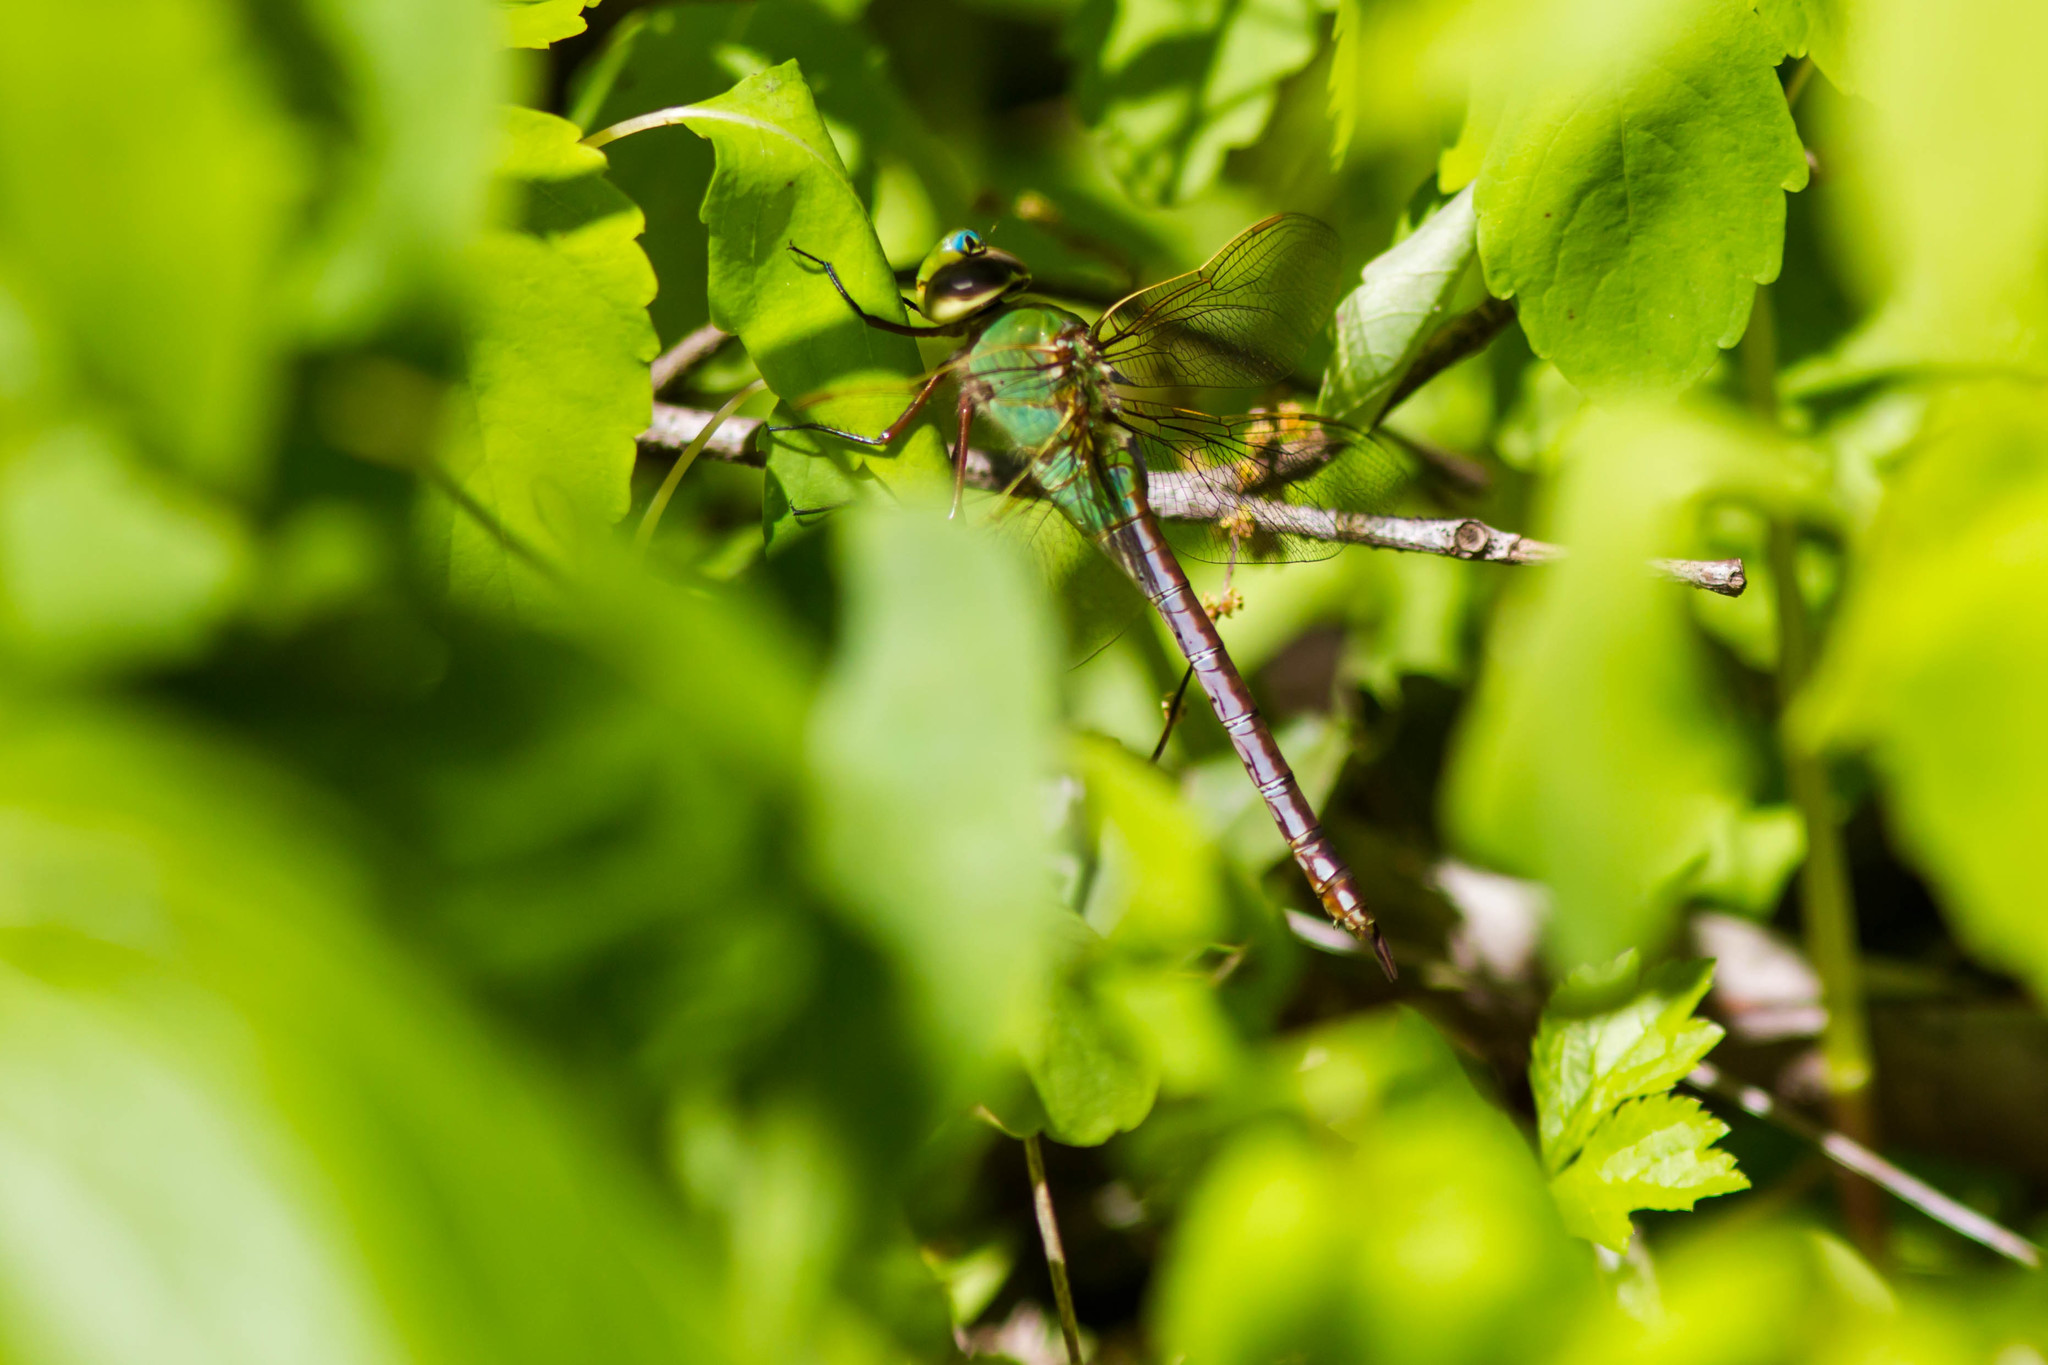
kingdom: Animalia
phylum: Arthropoda
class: Insecta
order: Odonata
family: Aeshnidae
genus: Anax
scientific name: Anax junius
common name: Common green darner
